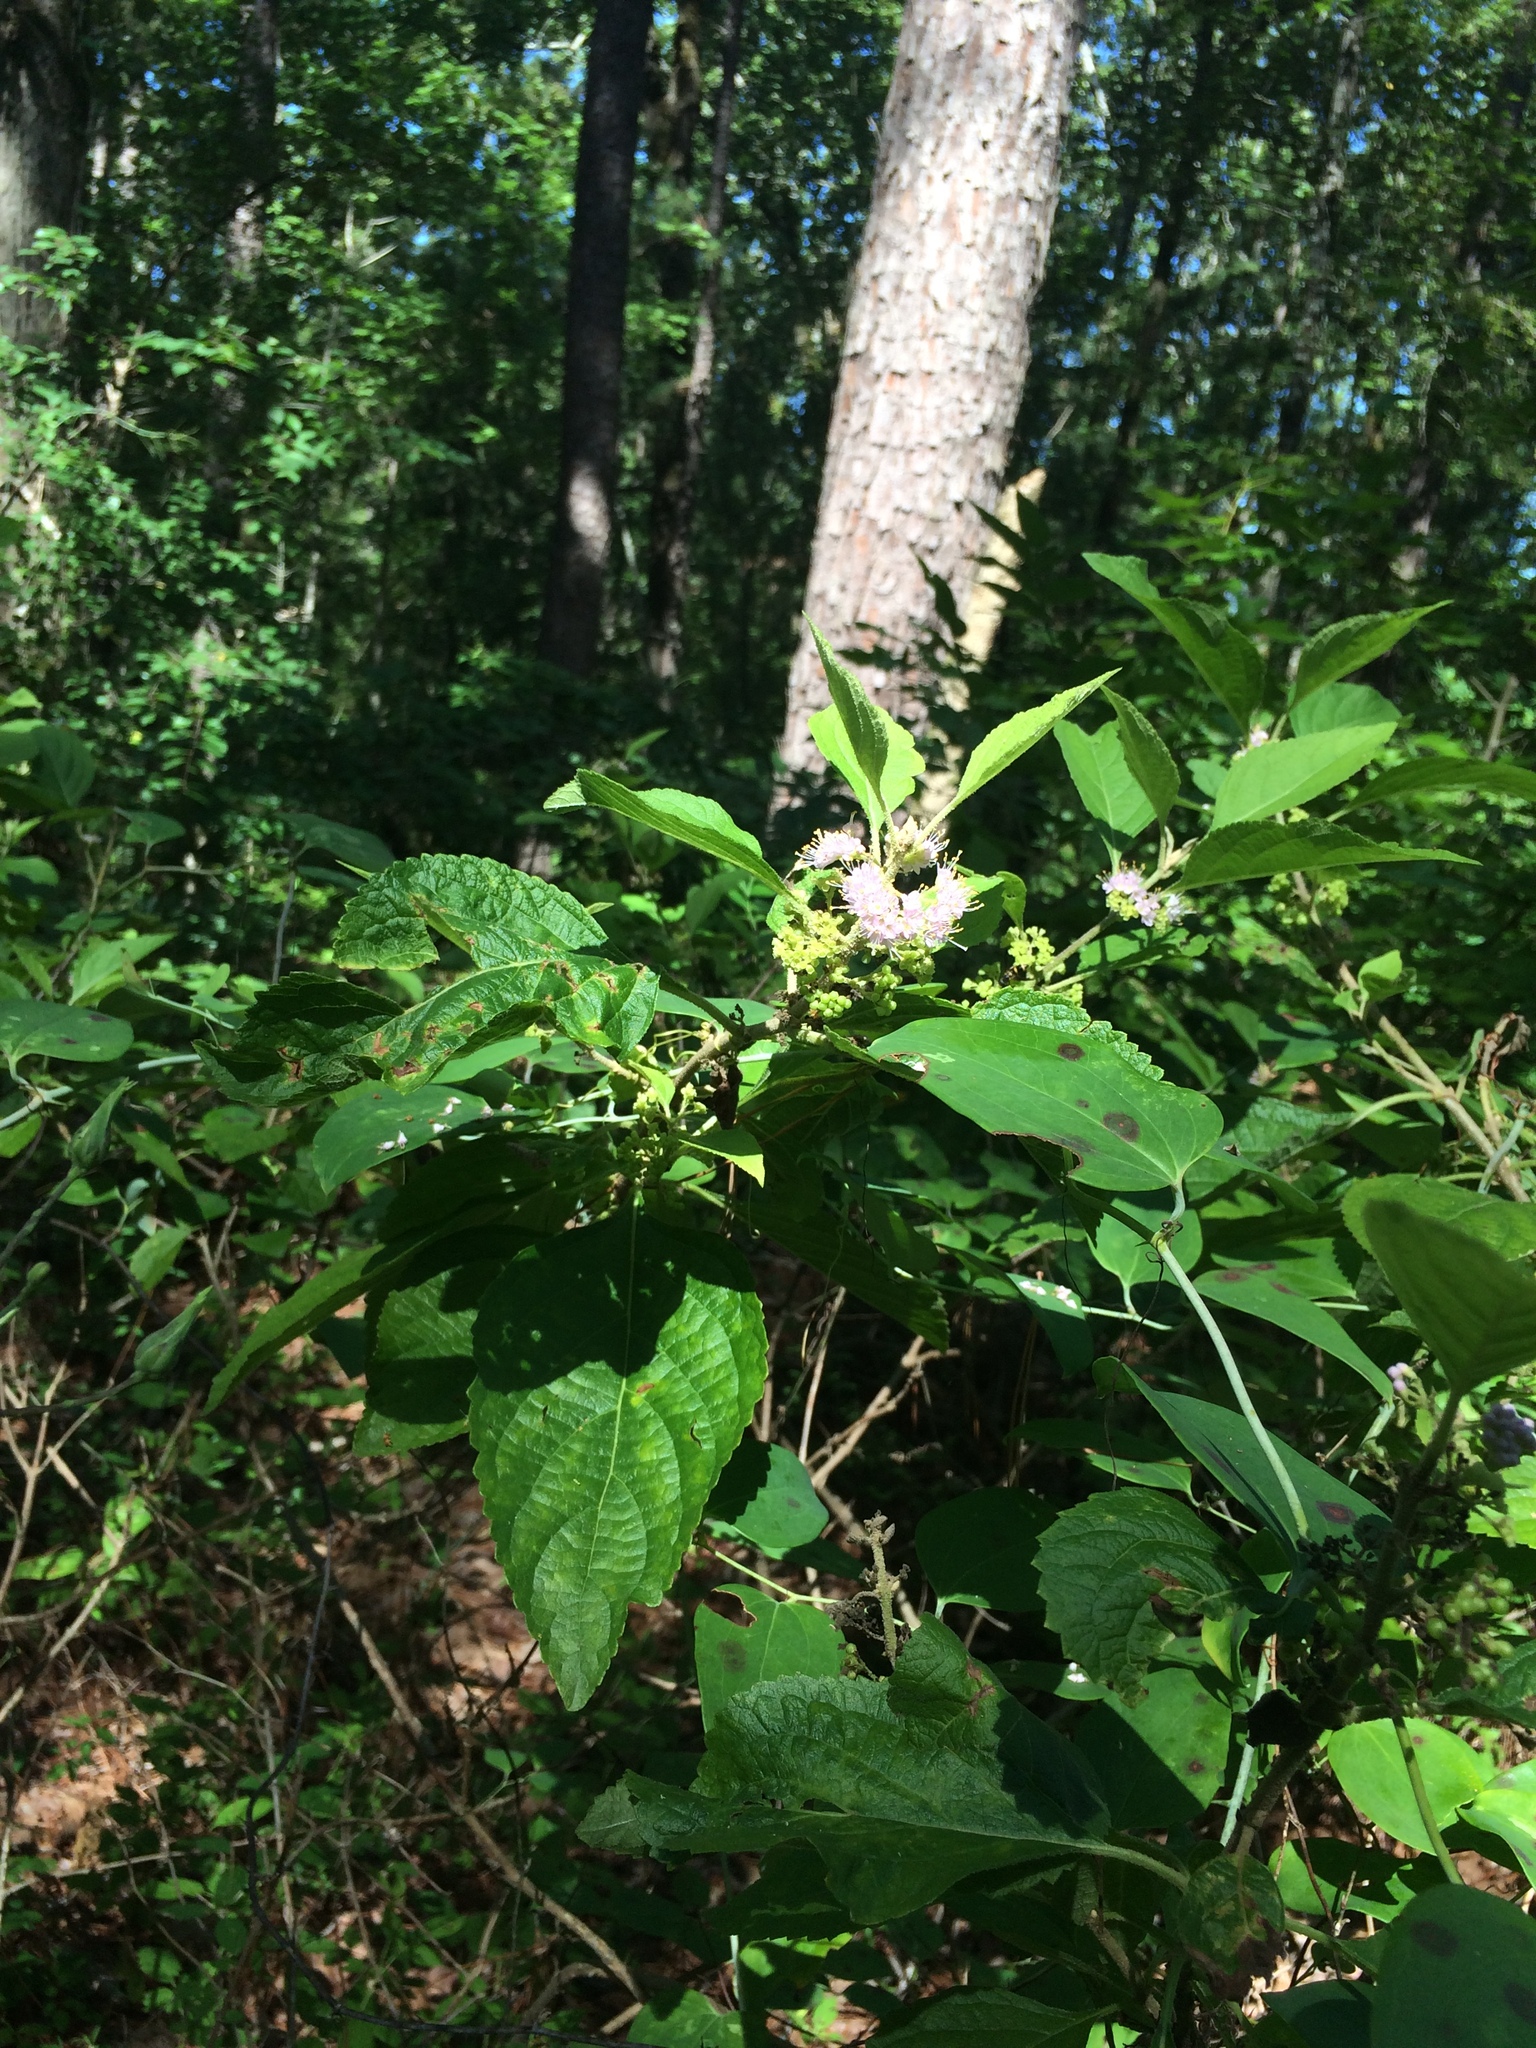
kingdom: Plantae
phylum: Tracheophyta
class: Magnoliopsida
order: Lamiales
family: Lamiaceae
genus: Callicarpa
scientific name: Callicarpa americana
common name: American beautyberry
